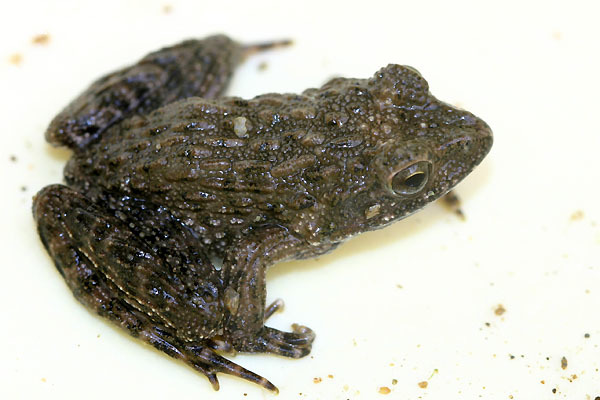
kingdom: Animalia
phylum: Chordata
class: Amphibia
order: Anura
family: Ranidae
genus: Glandirana
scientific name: Glandirana emeljanovi
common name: Northeast china rough-skinned frog
